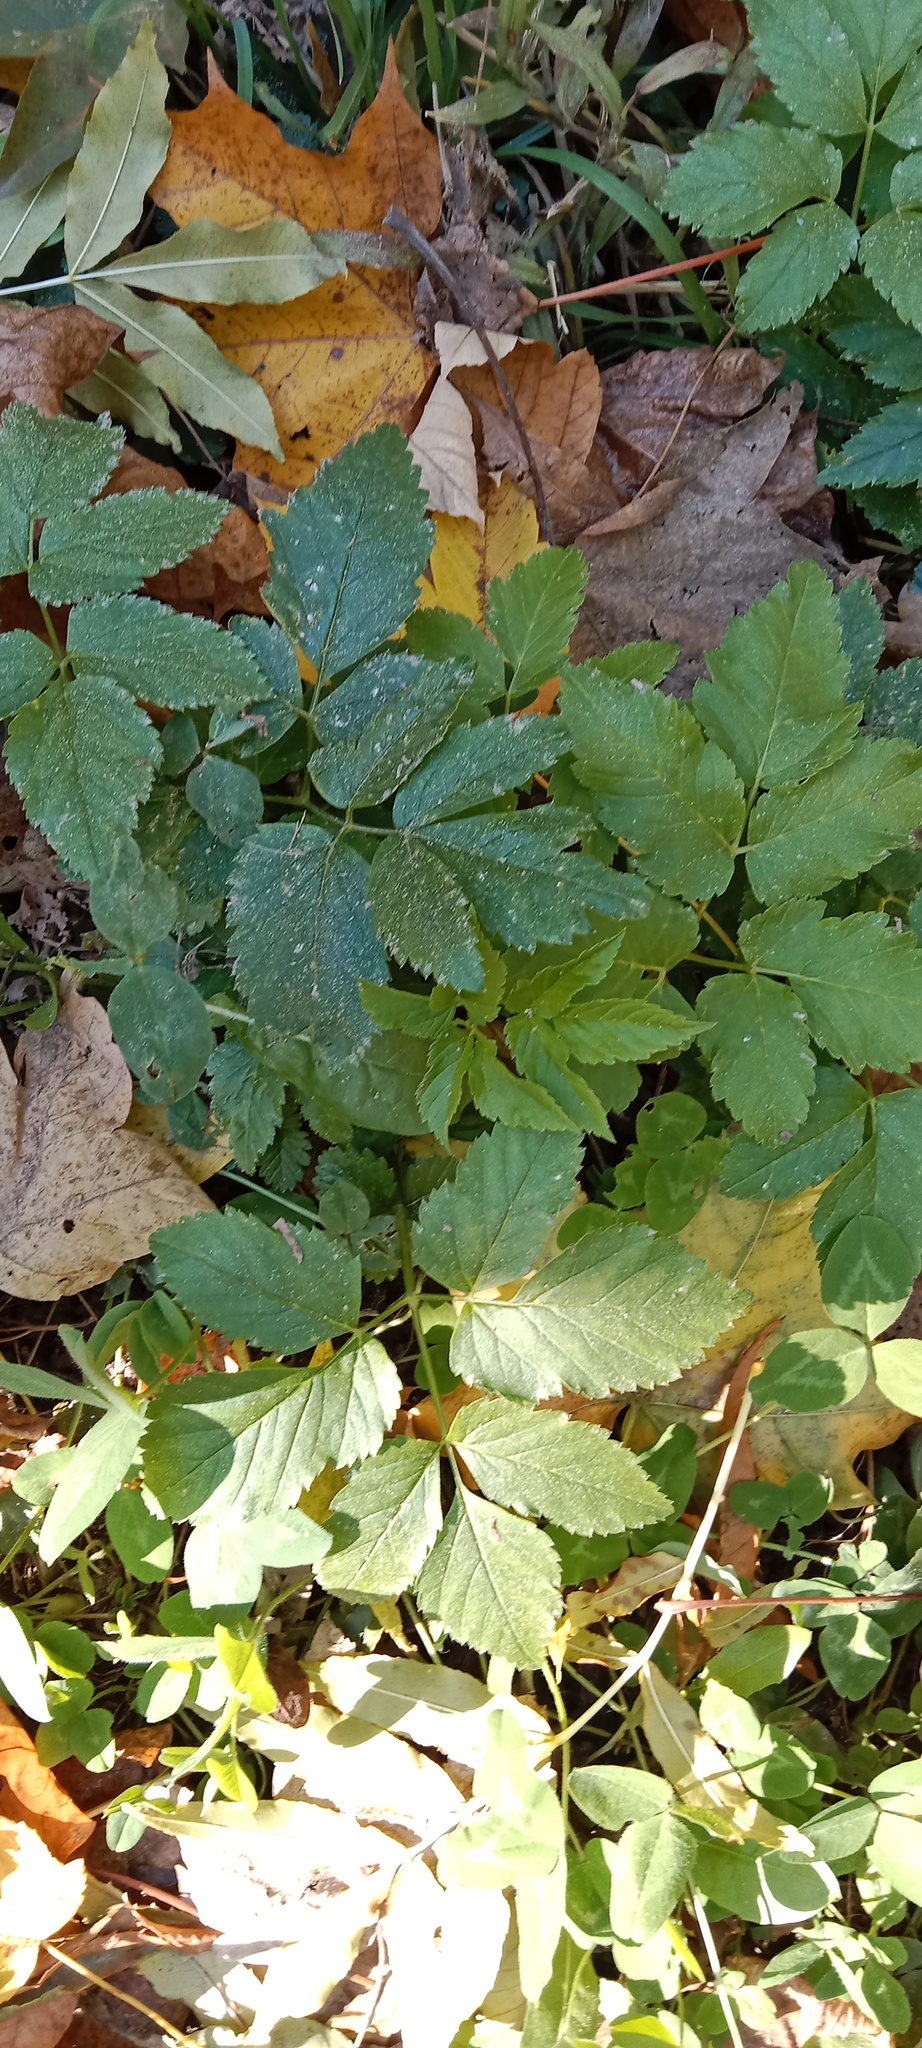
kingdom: Plantae
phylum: Tracheophyta
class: Magnoliopsida
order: Apiales
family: Apiaceae
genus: Aegopodium
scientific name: Aegopodium podagraria
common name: Ground-elder
